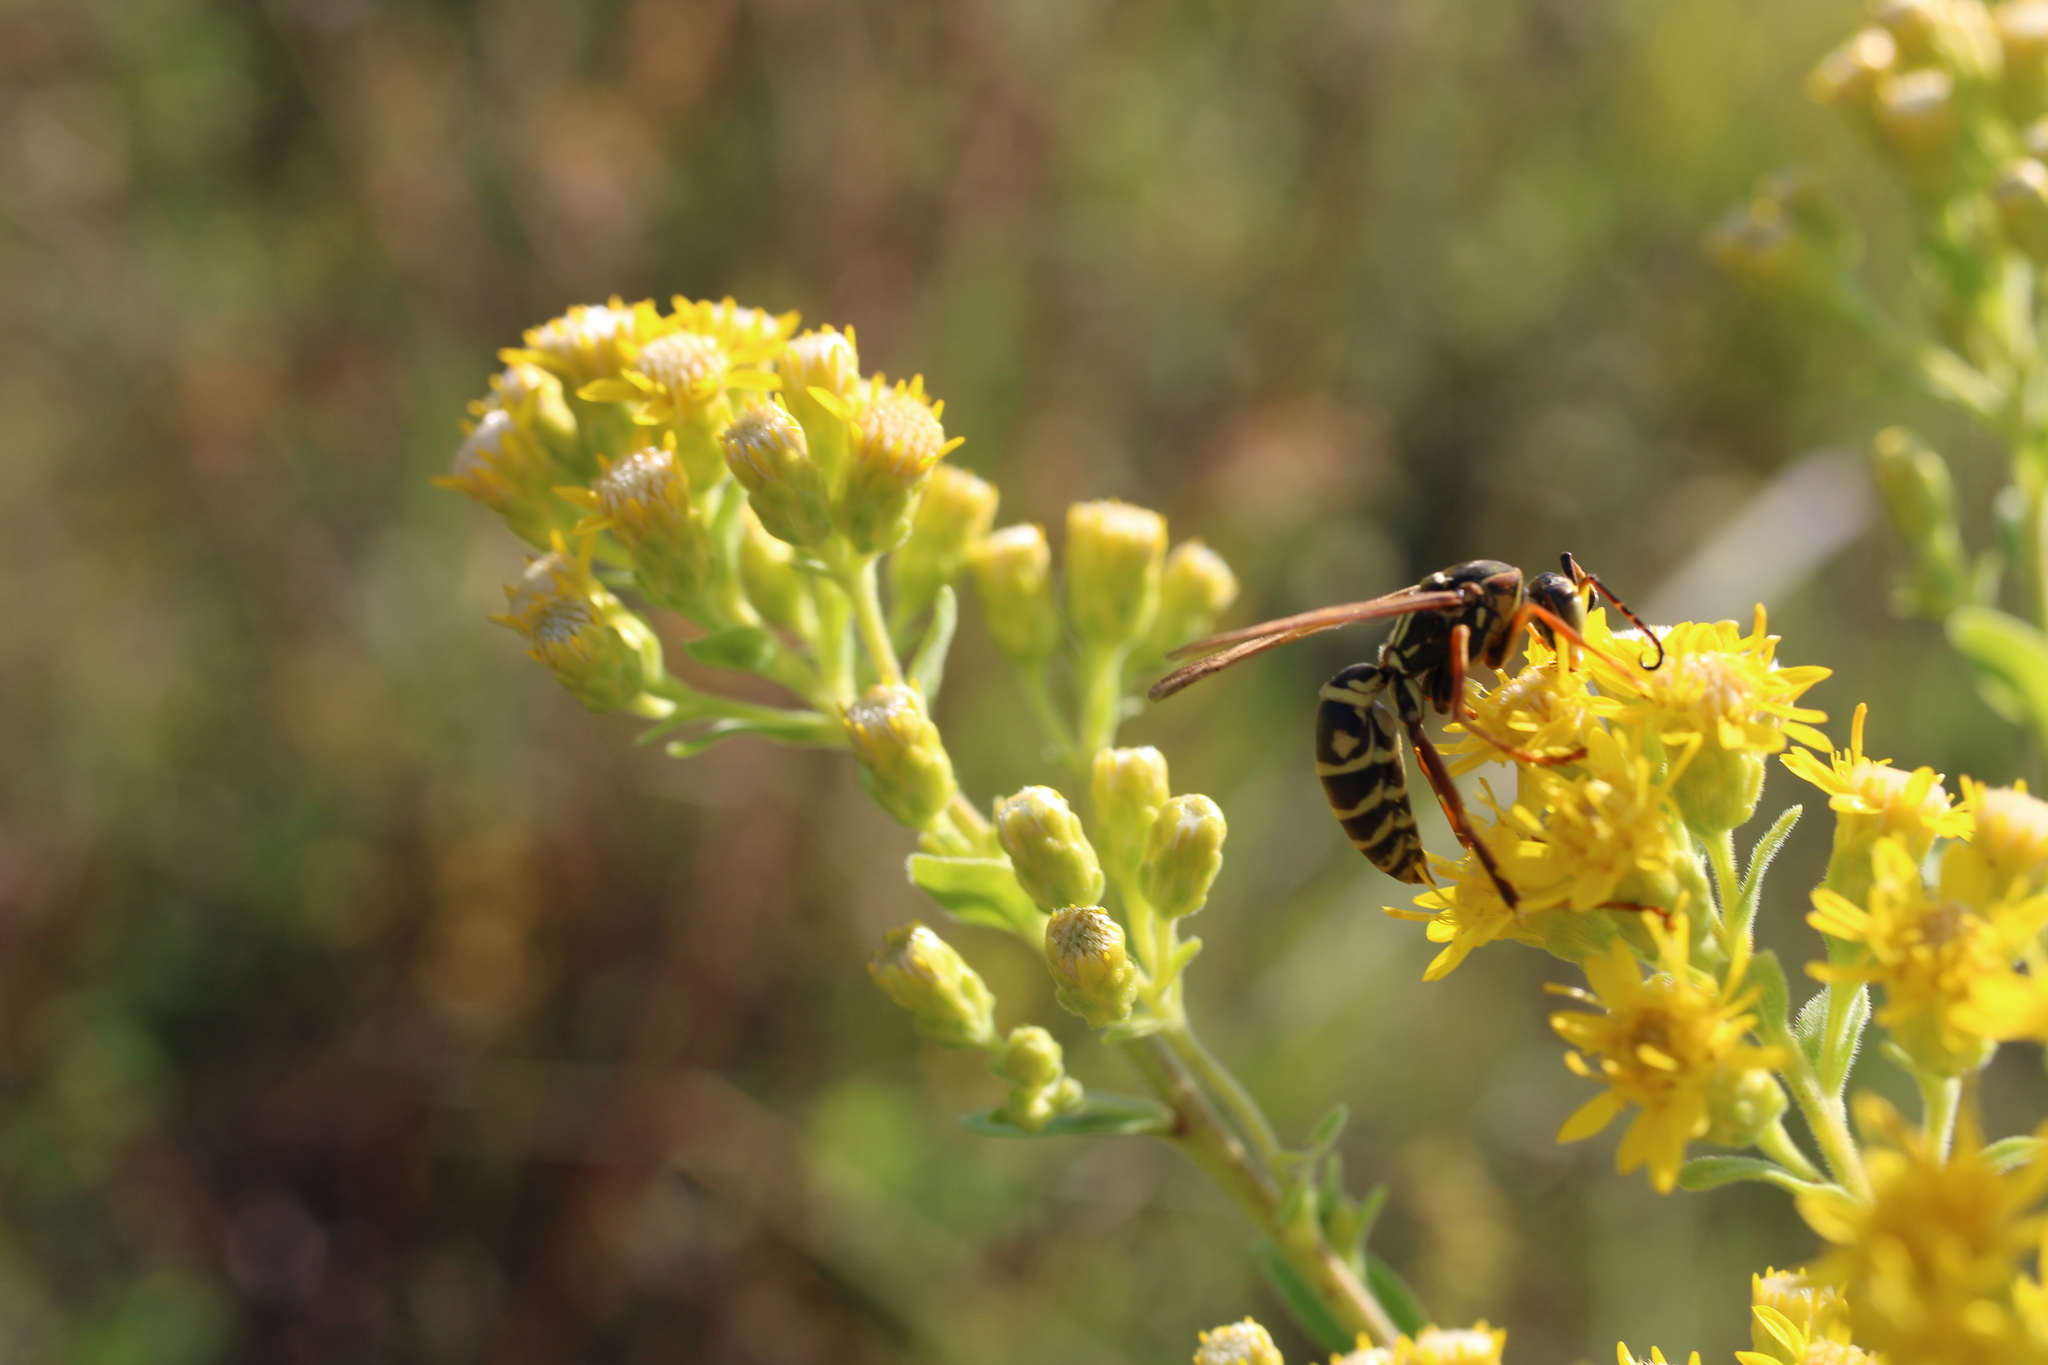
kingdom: Animalia
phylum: Arthropoda
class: Insecta
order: Hymenoptera
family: Eumenidae
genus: Polistes
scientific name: Polistes fuscatus
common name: Dark paper wasp
